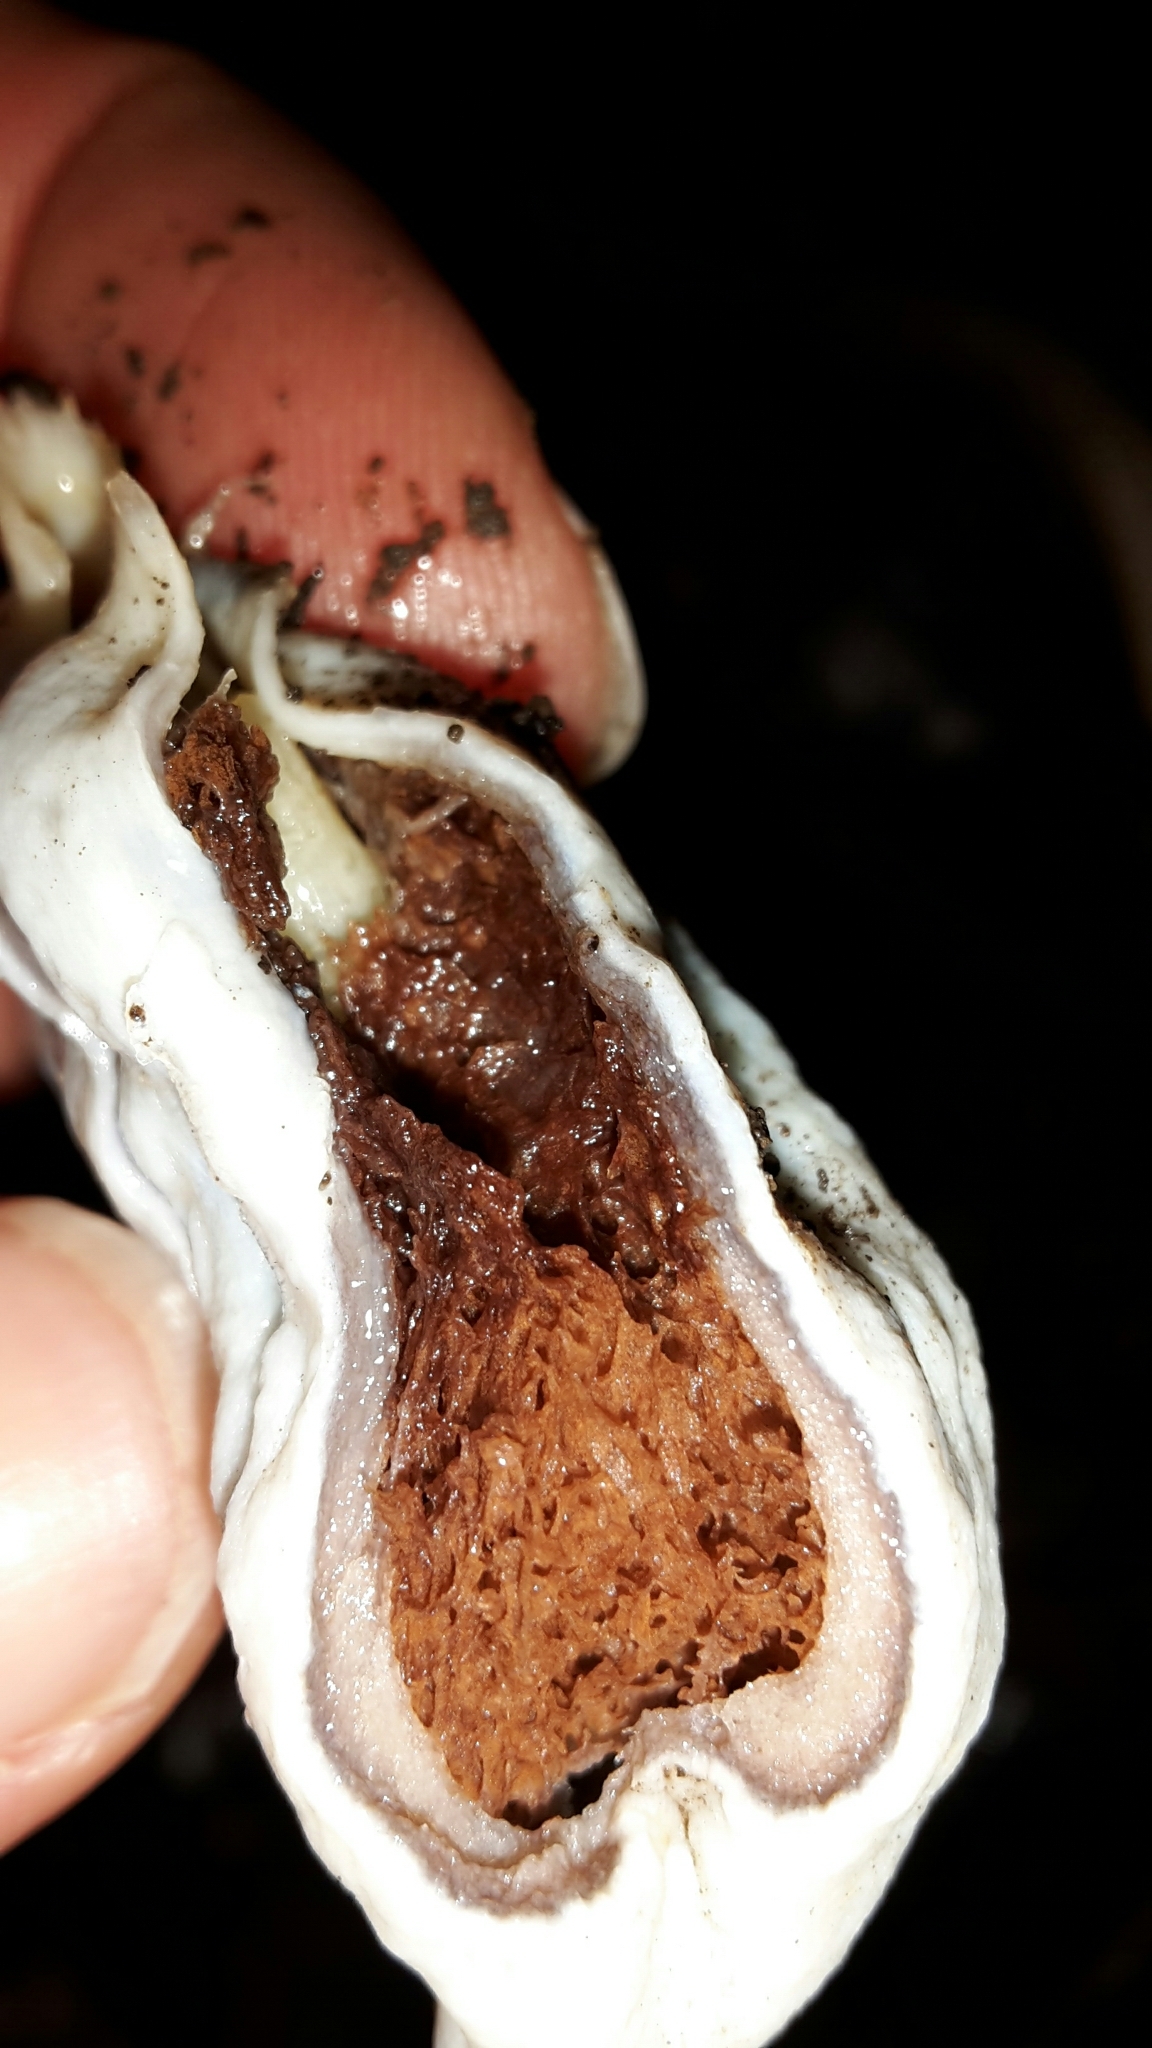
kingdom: Fungi
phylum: Basidiomycota
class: Agaricomycetes
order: Agaricales
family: Agaricaceae
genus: Clavogaster
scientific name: Clavogaster virescens
